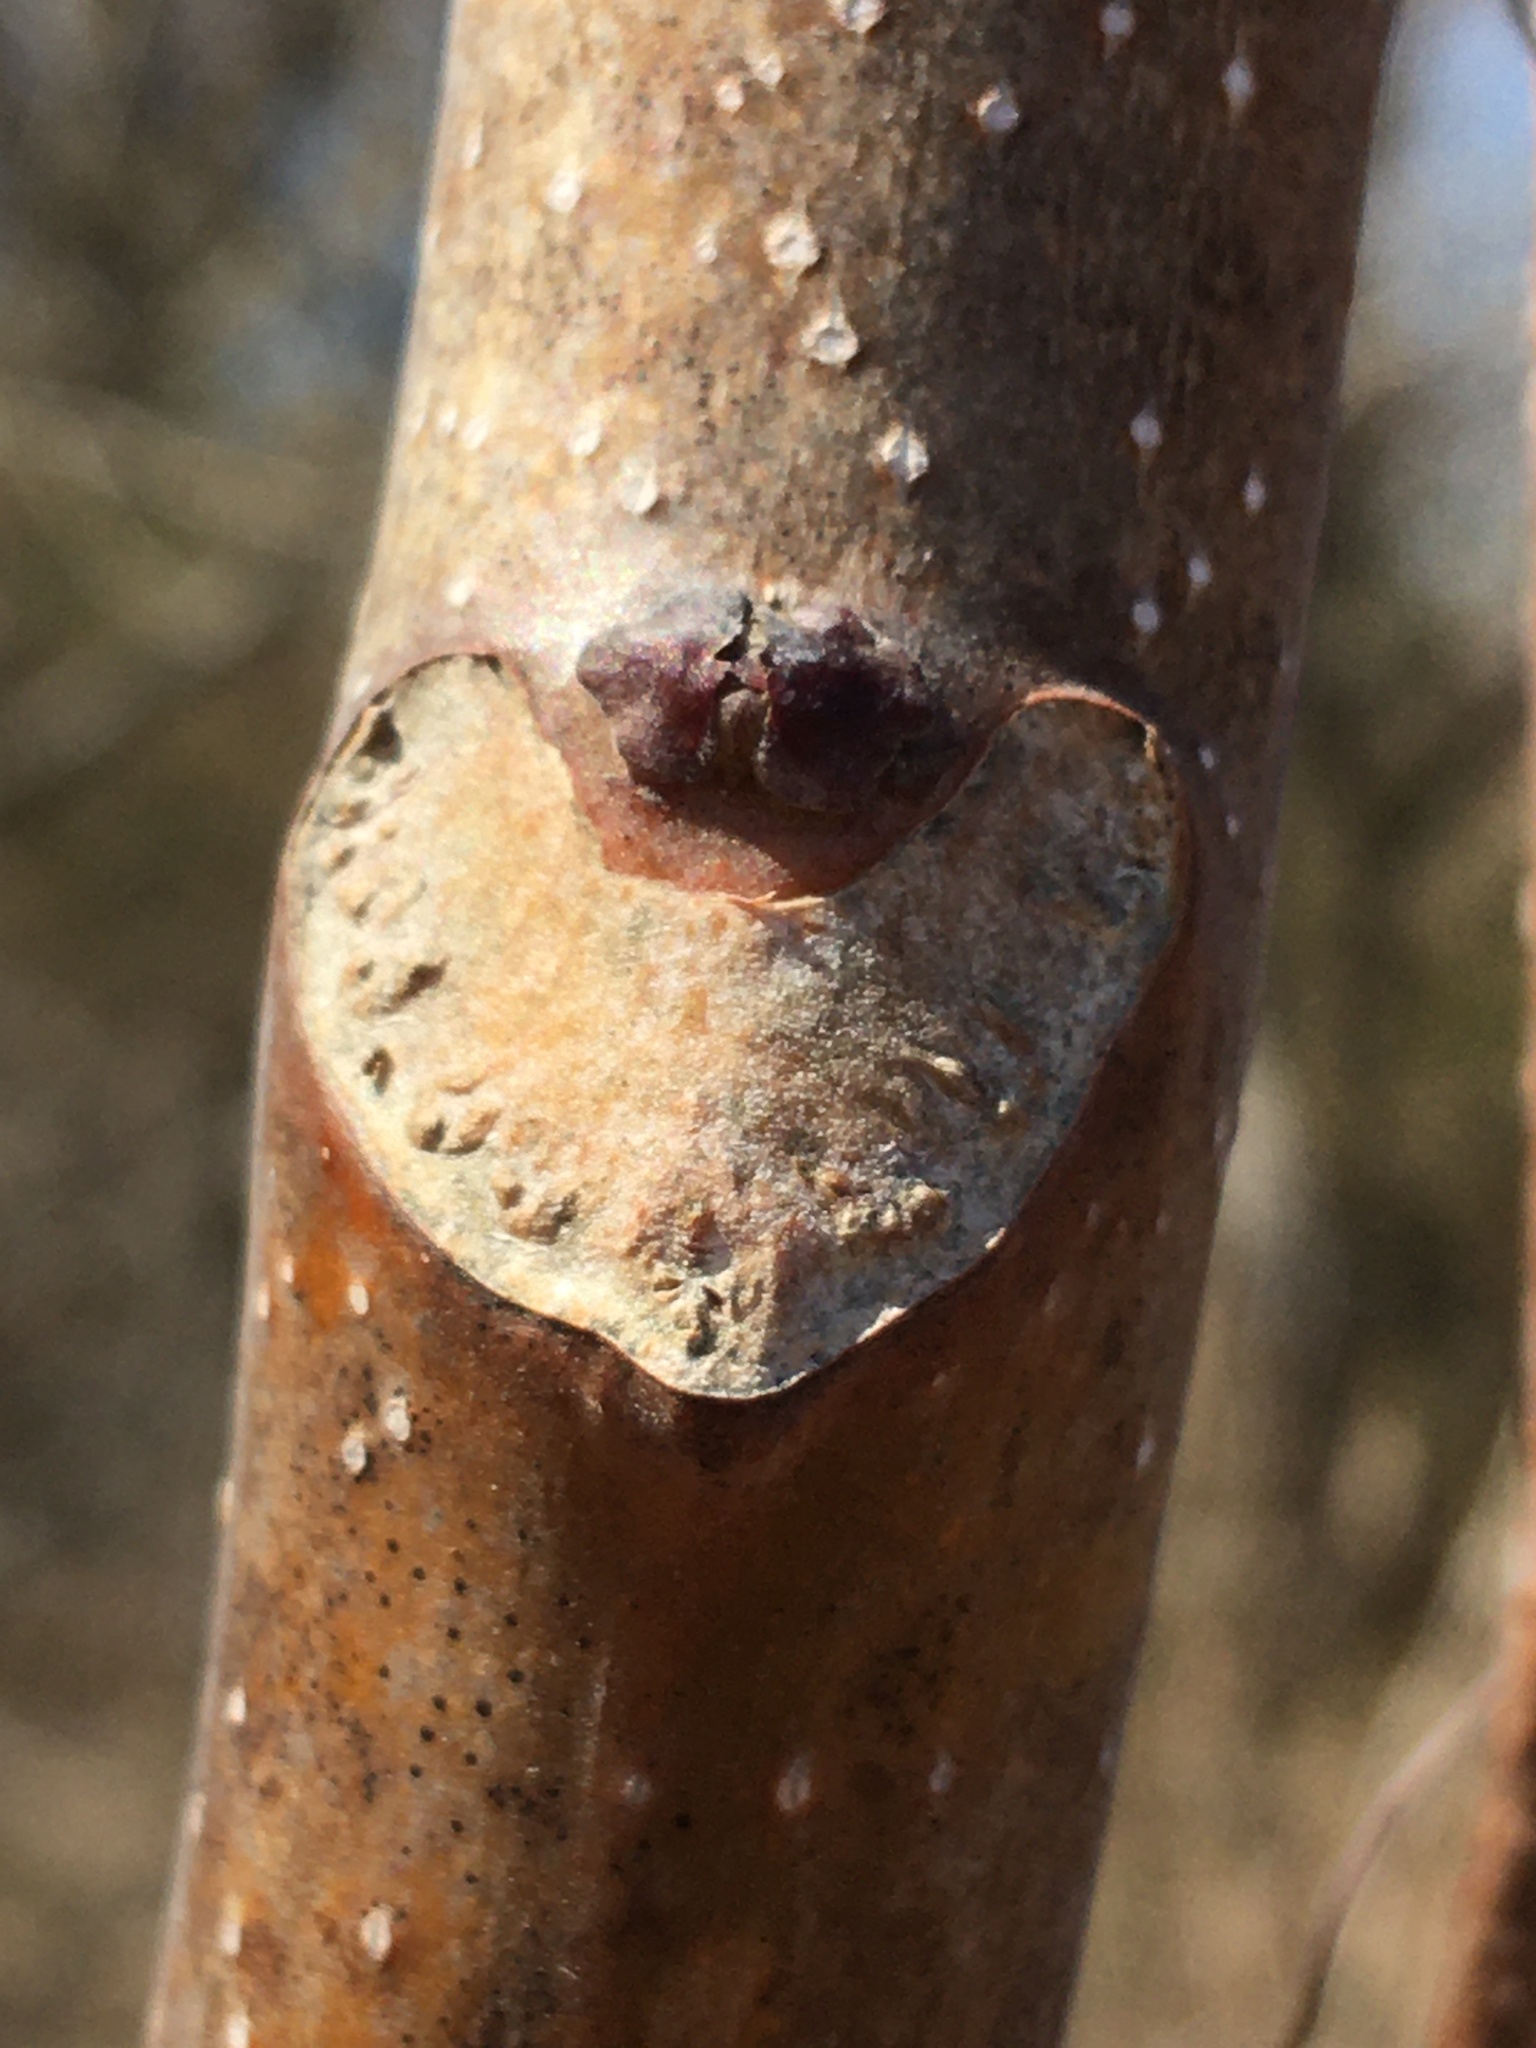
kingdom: Plantae
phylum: Tracheophyta
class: Magnoliopsida
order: Sapindales
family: Simaroubaceae
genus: Ailanthus
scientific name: Ailanthus altissima
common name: Tree-of-heaven
